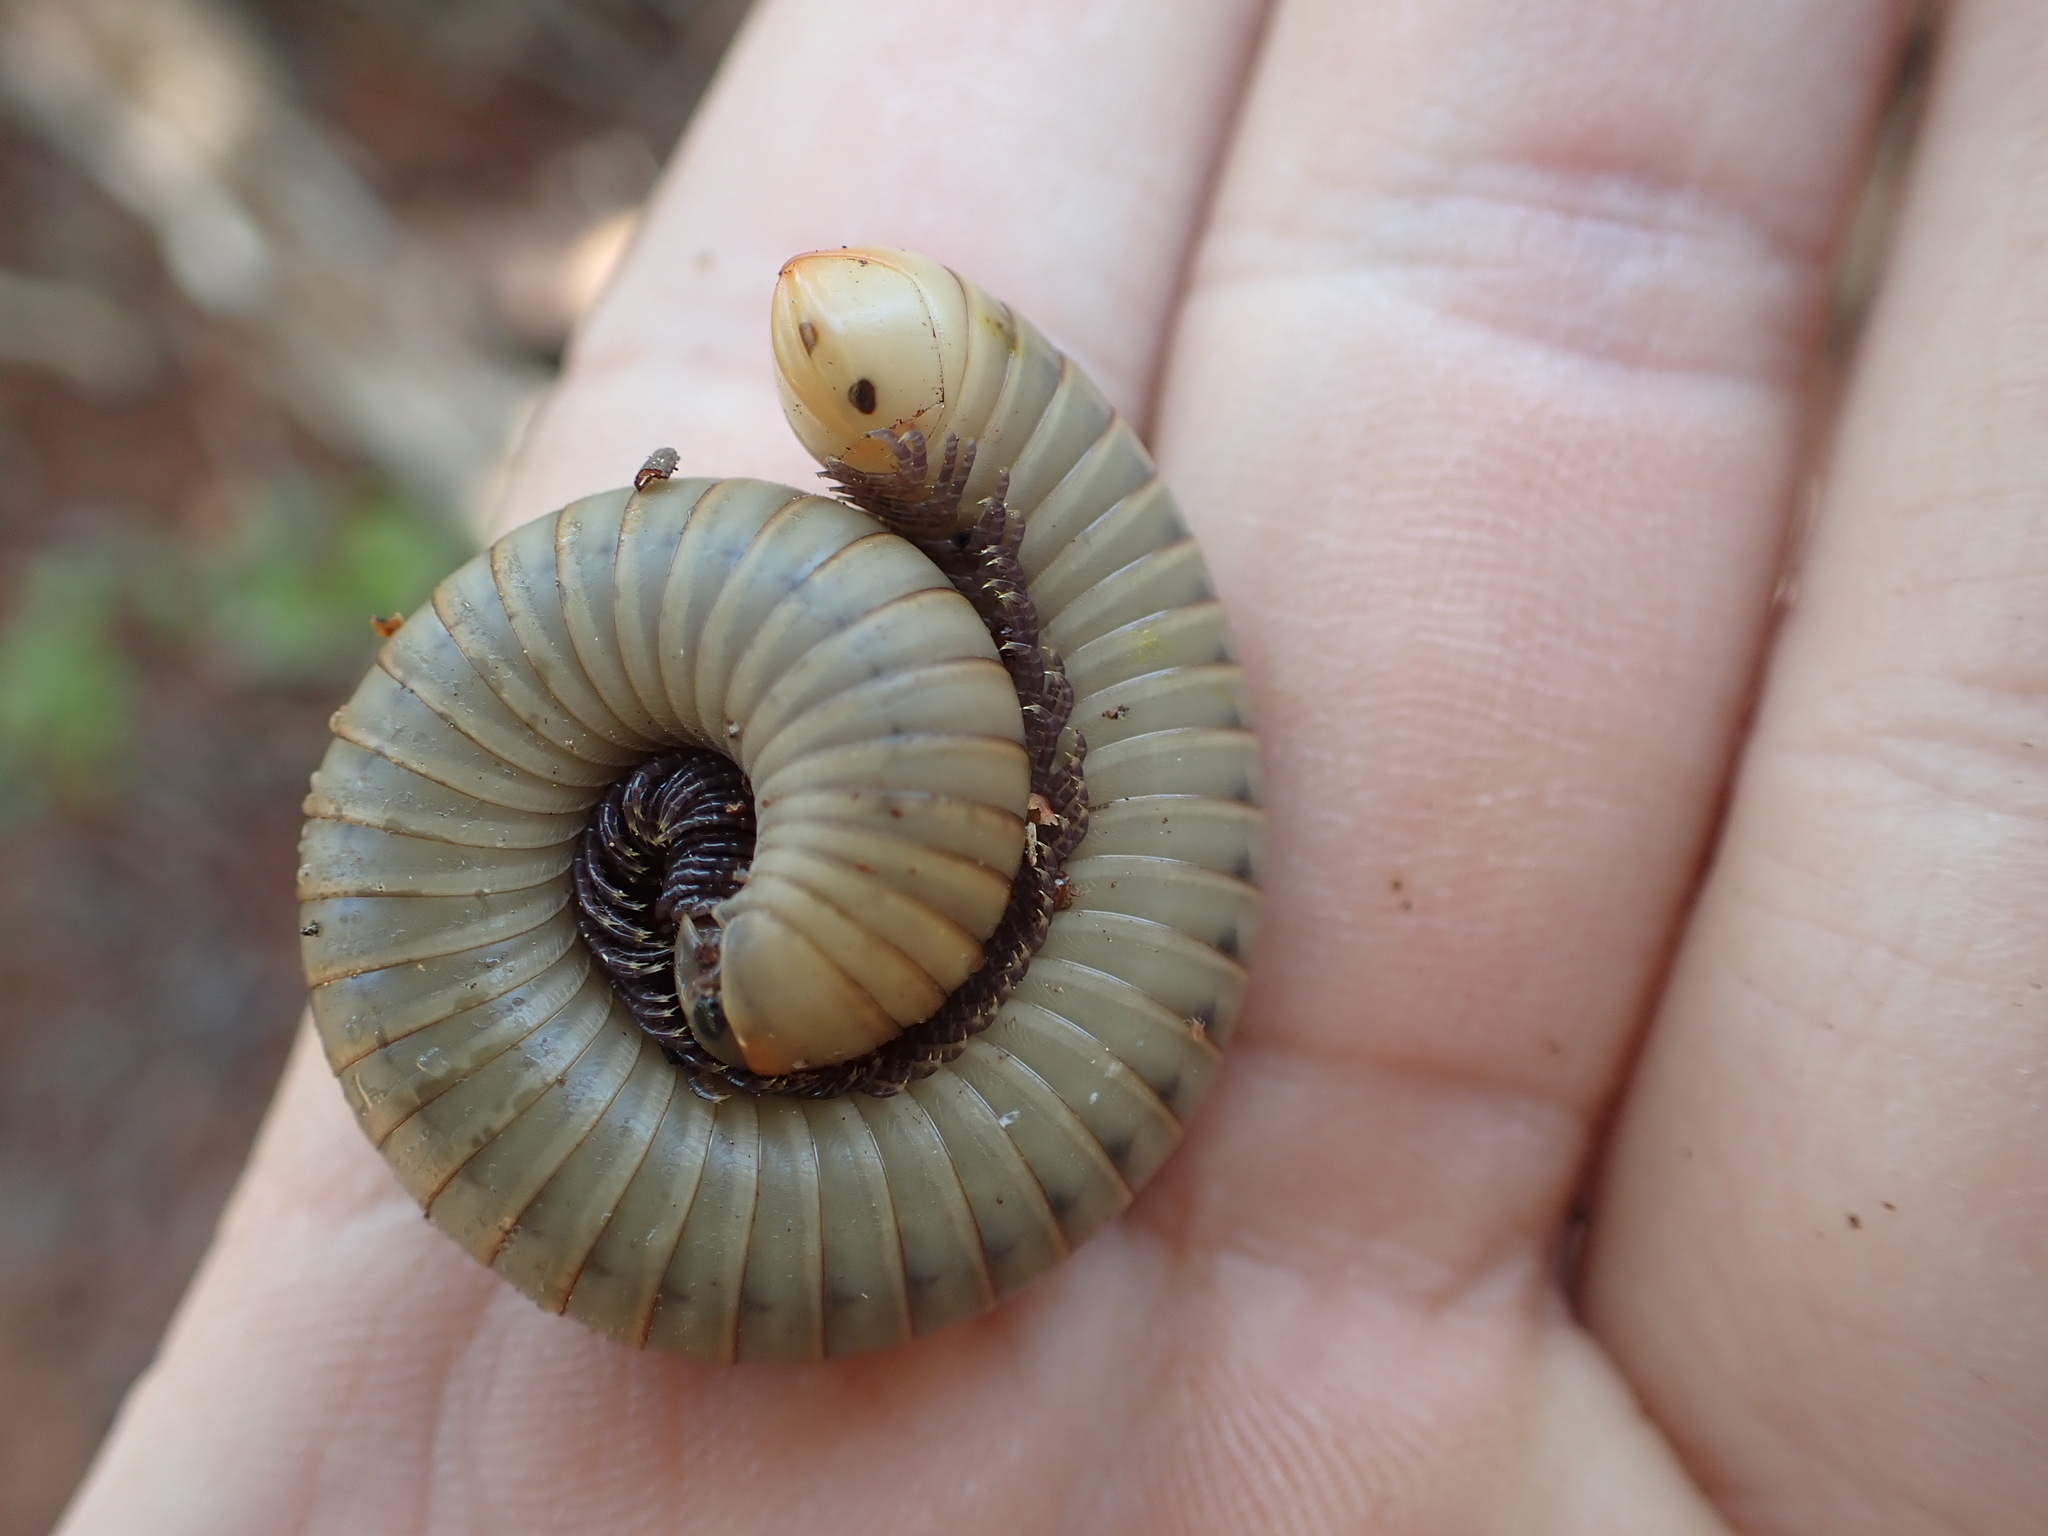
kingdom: Animalia
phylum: Arthropoda
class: Diplopoda
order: Spirobolida
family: Spirobolidae
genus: Narceus
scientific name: Narceus gordanus
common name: Grayish-green millipede
